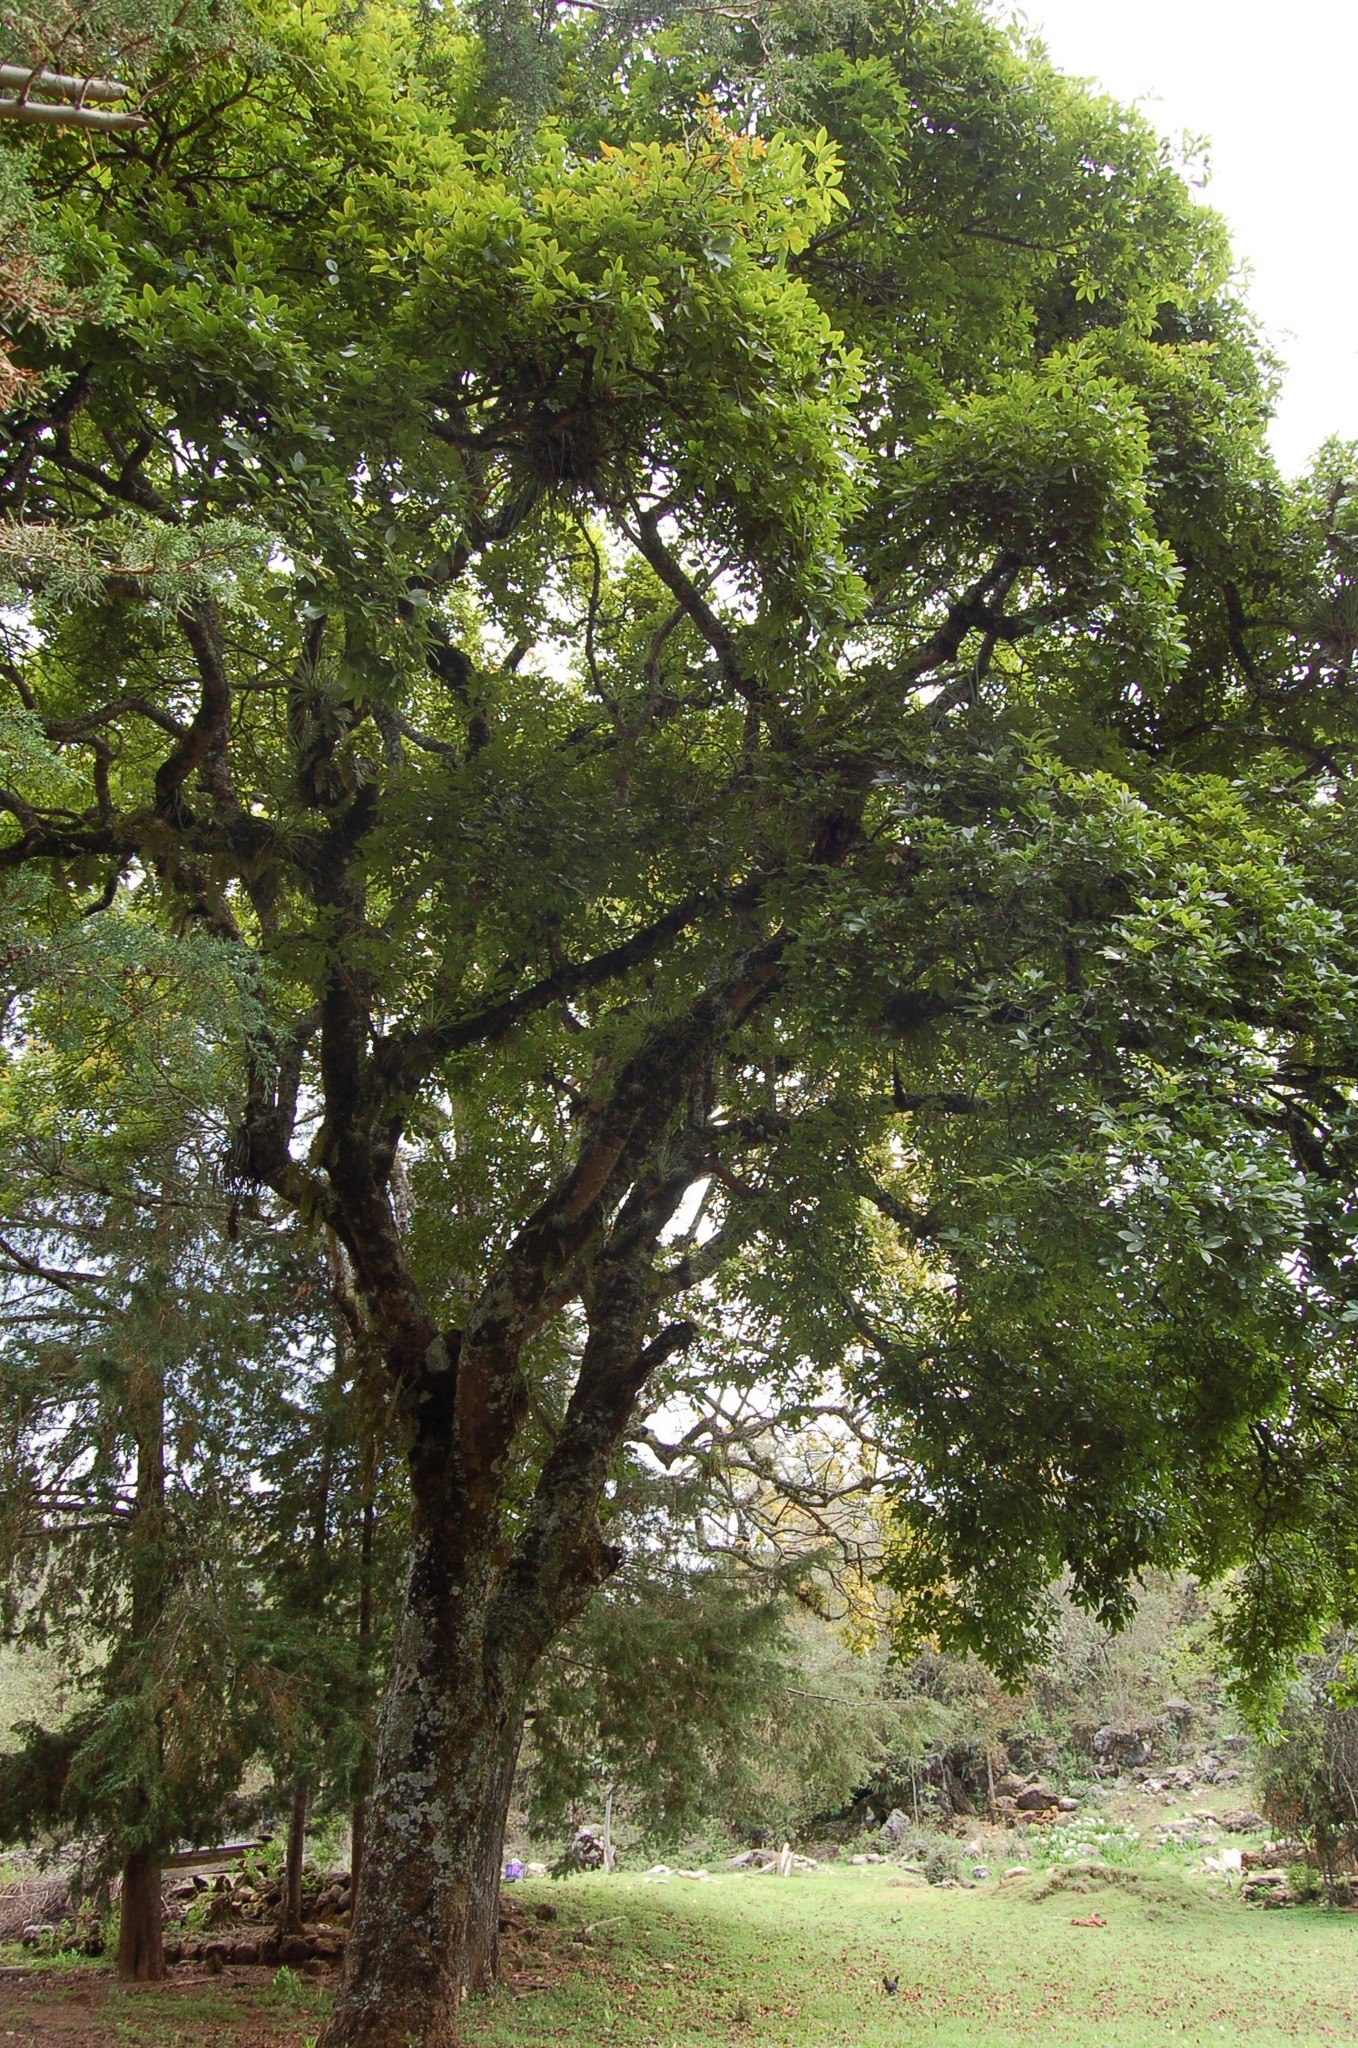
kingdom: Plantae
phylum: Tracheophyta
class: Magnoliopsida
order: Sapindales
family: Rutaceae
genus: Casimiroa
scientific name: Casimiroa edulis
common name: Mexican-apple
